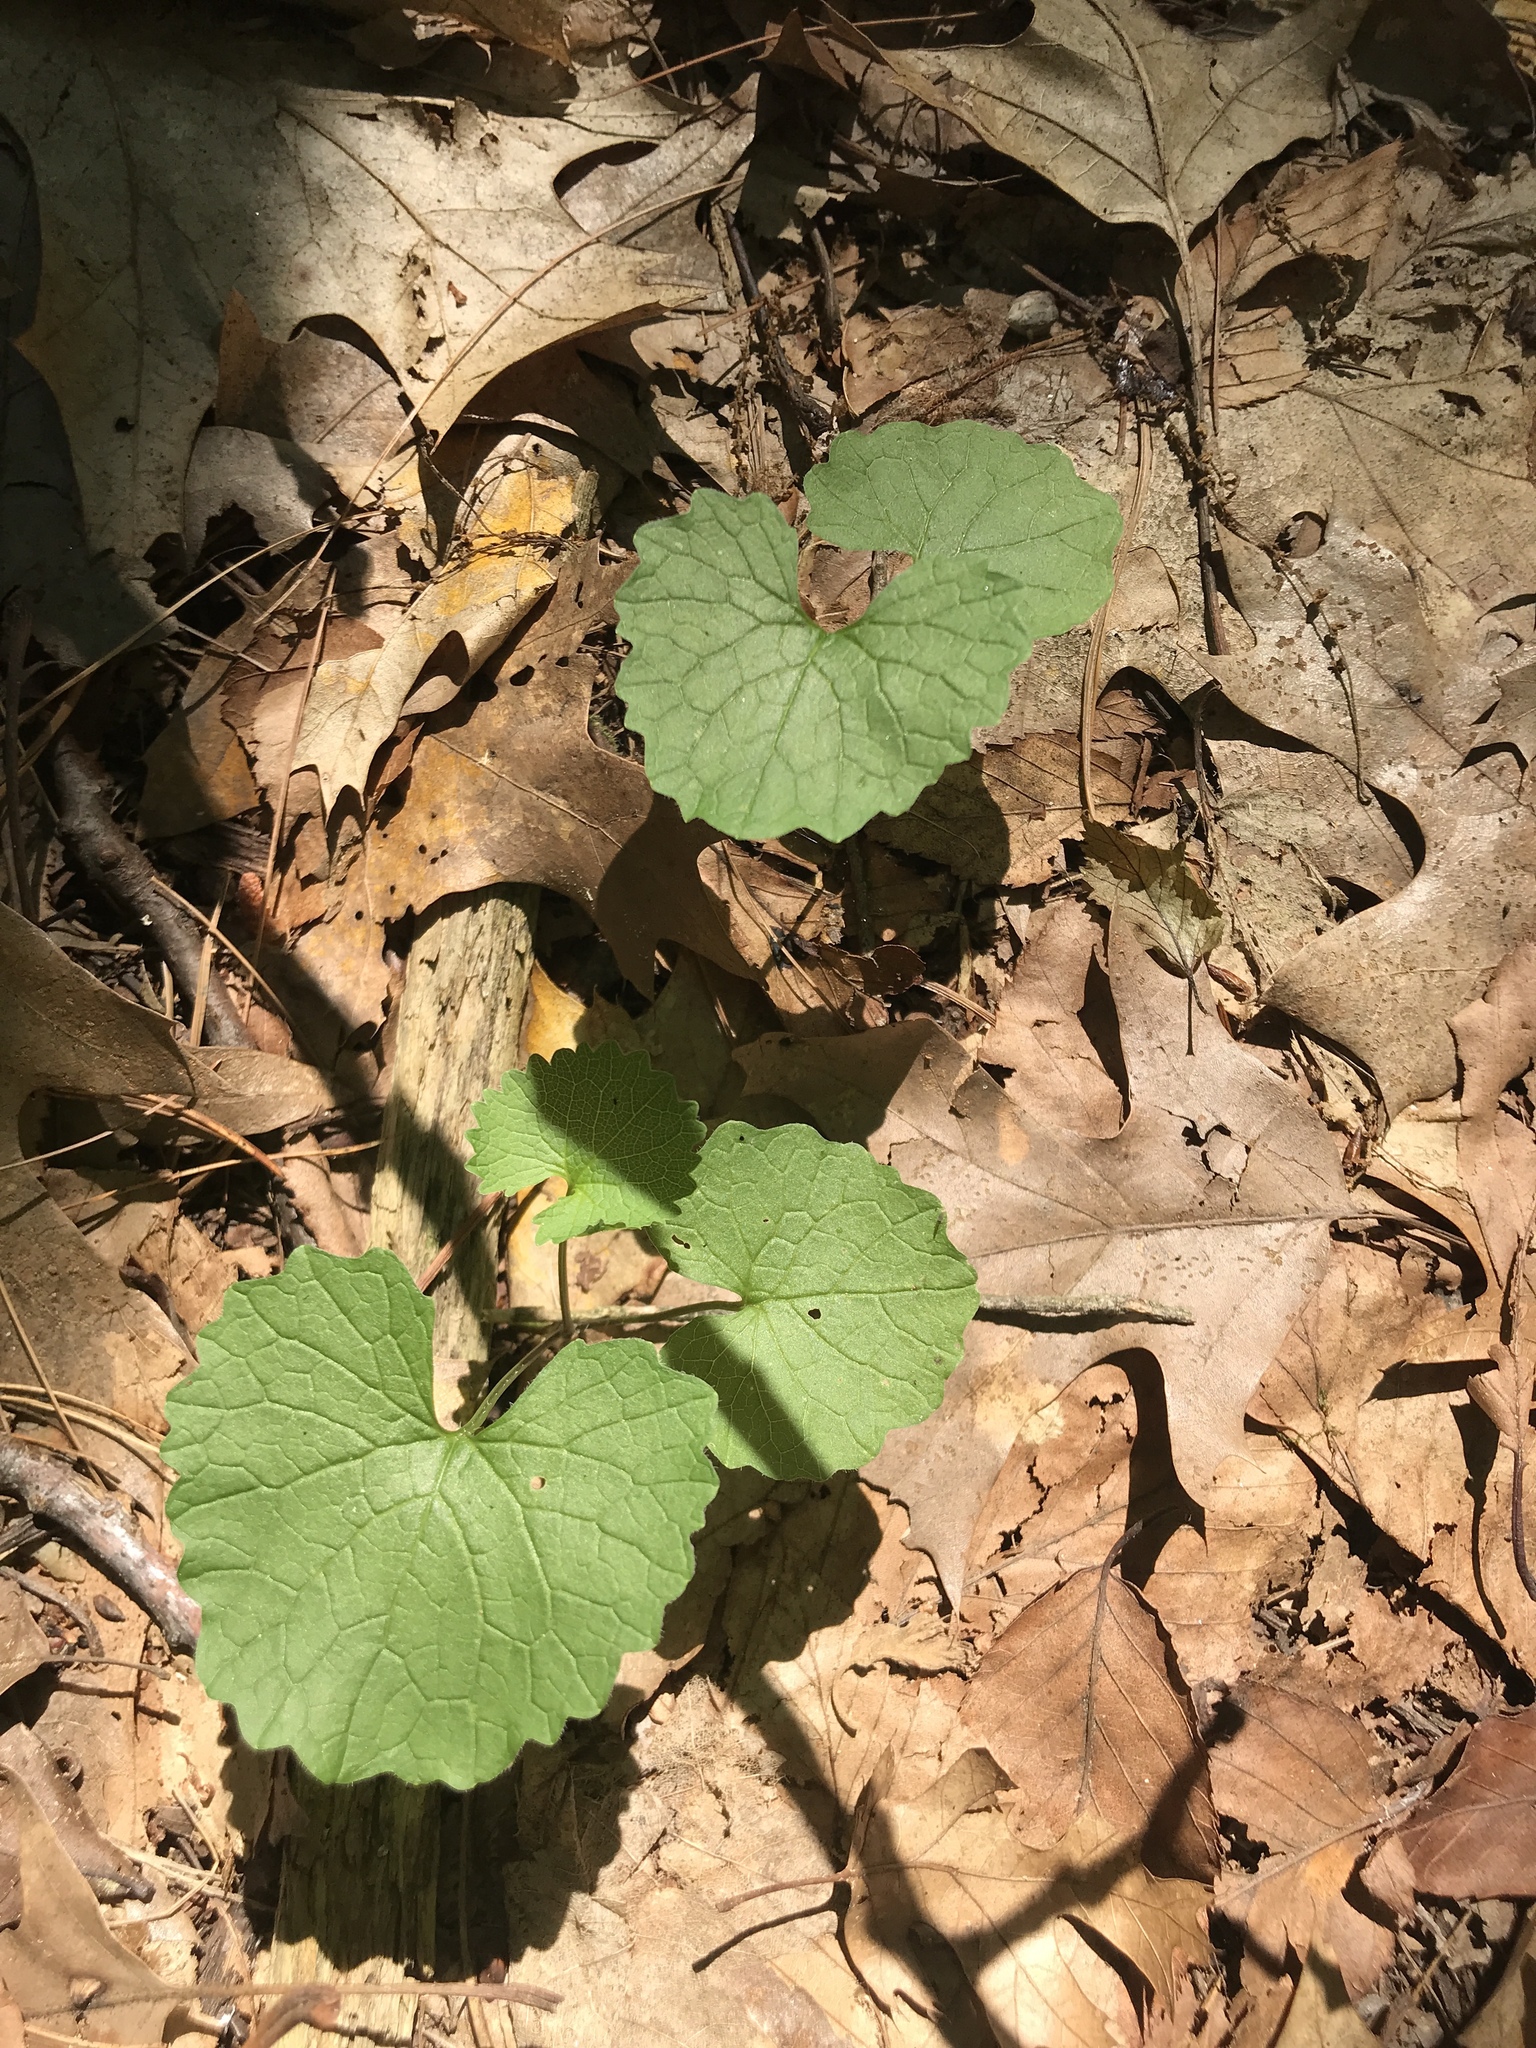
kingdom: Plantae
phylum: Tracheophyta
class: Magnoliopsida
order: Brassicales
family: Brassicaceae
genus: Alliaria
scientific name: Alliaria petiolata
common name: Garlic mustard
